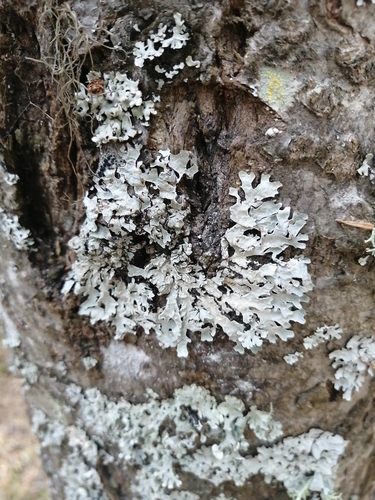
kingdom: Fungi
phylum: Ascomycota
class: Lecanoromycetes
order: Lecanorales
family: Parmeliaceae
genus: Parmelia
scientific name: Parmelia sulcata
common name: Netted shield lichen
